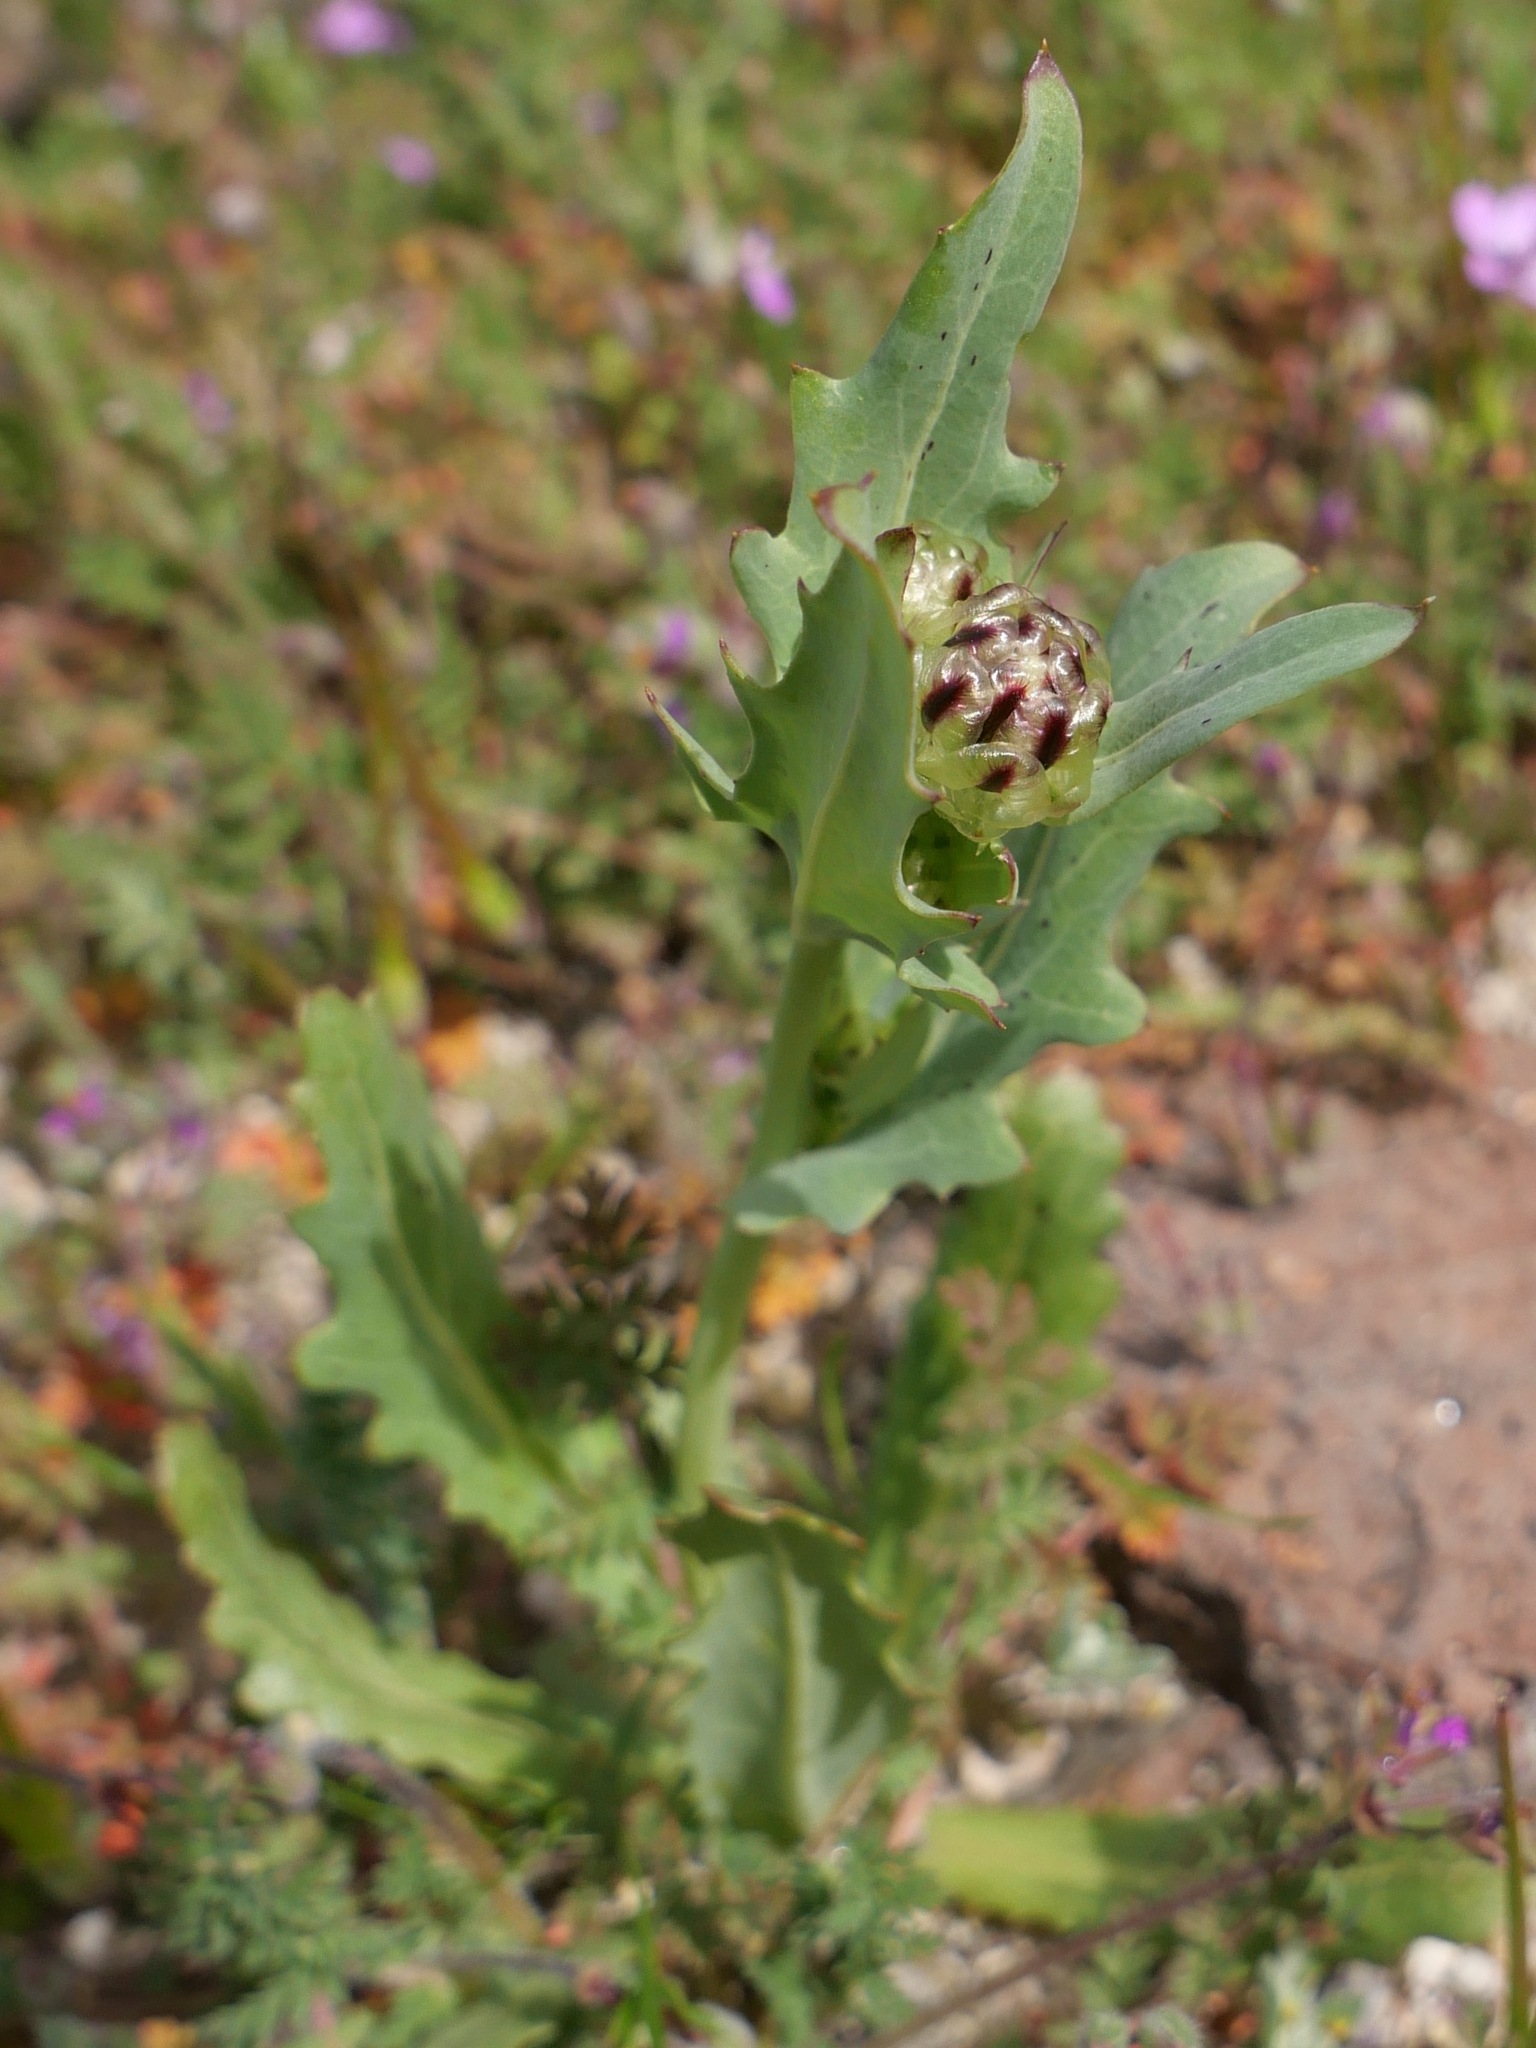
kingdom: Plantae
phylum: Tracheophyta
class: Magnoliopsida
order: Asterales
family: Asteraceae
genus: Malacothrix
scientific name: Malacothrix coulteri
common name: Snake's-head
